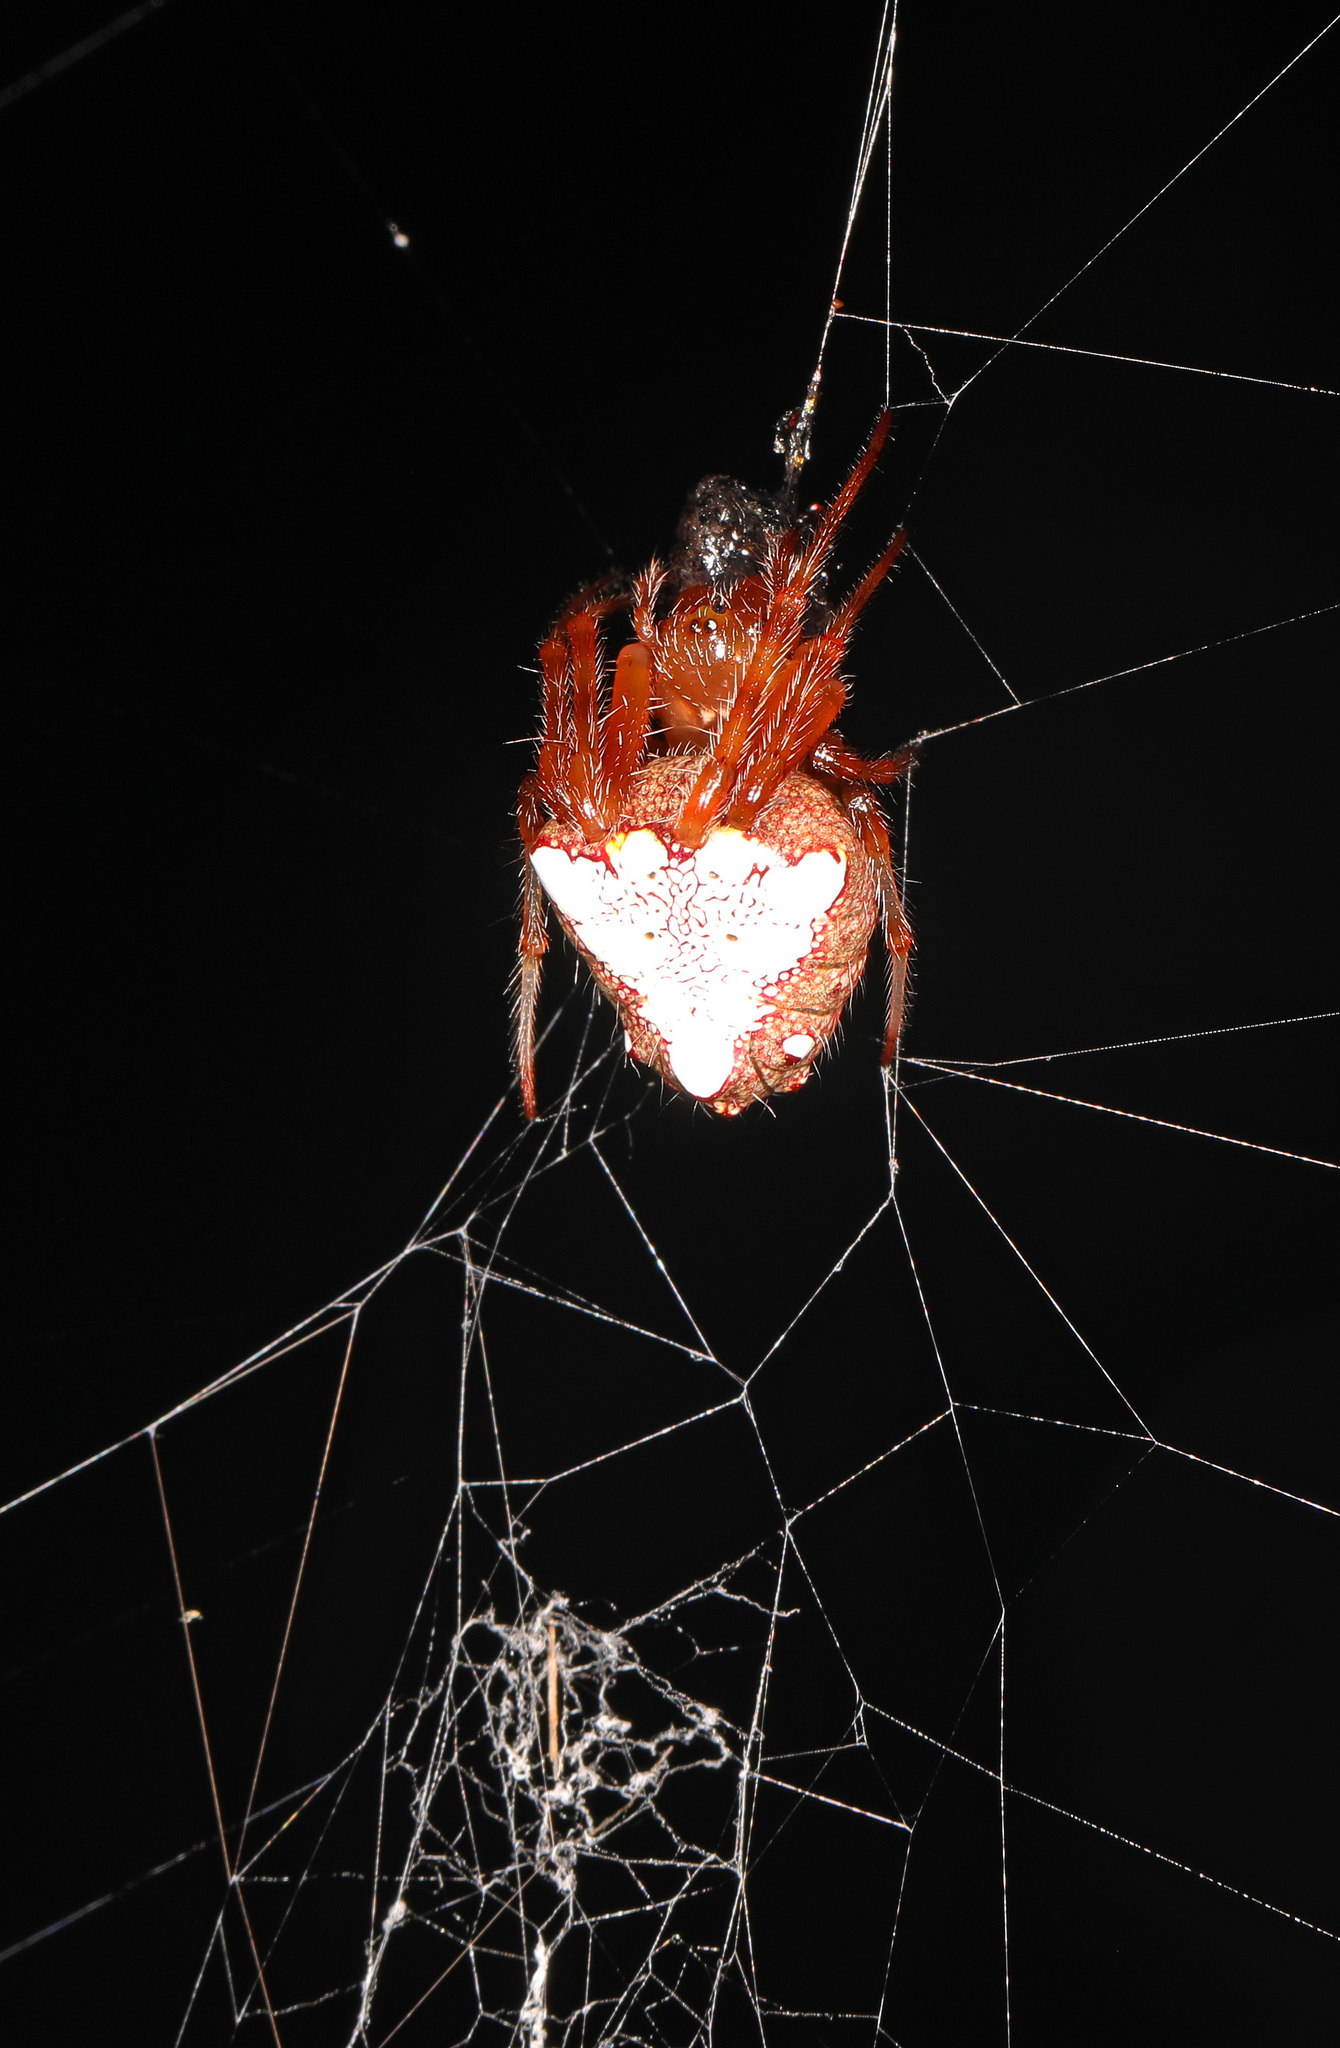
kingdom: Animalia
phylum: Arthropoda
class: Arachnida
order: Araneae
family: Araneidae
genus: Verrucosa
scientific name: Verrucosa arenata
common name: Orb weavers
